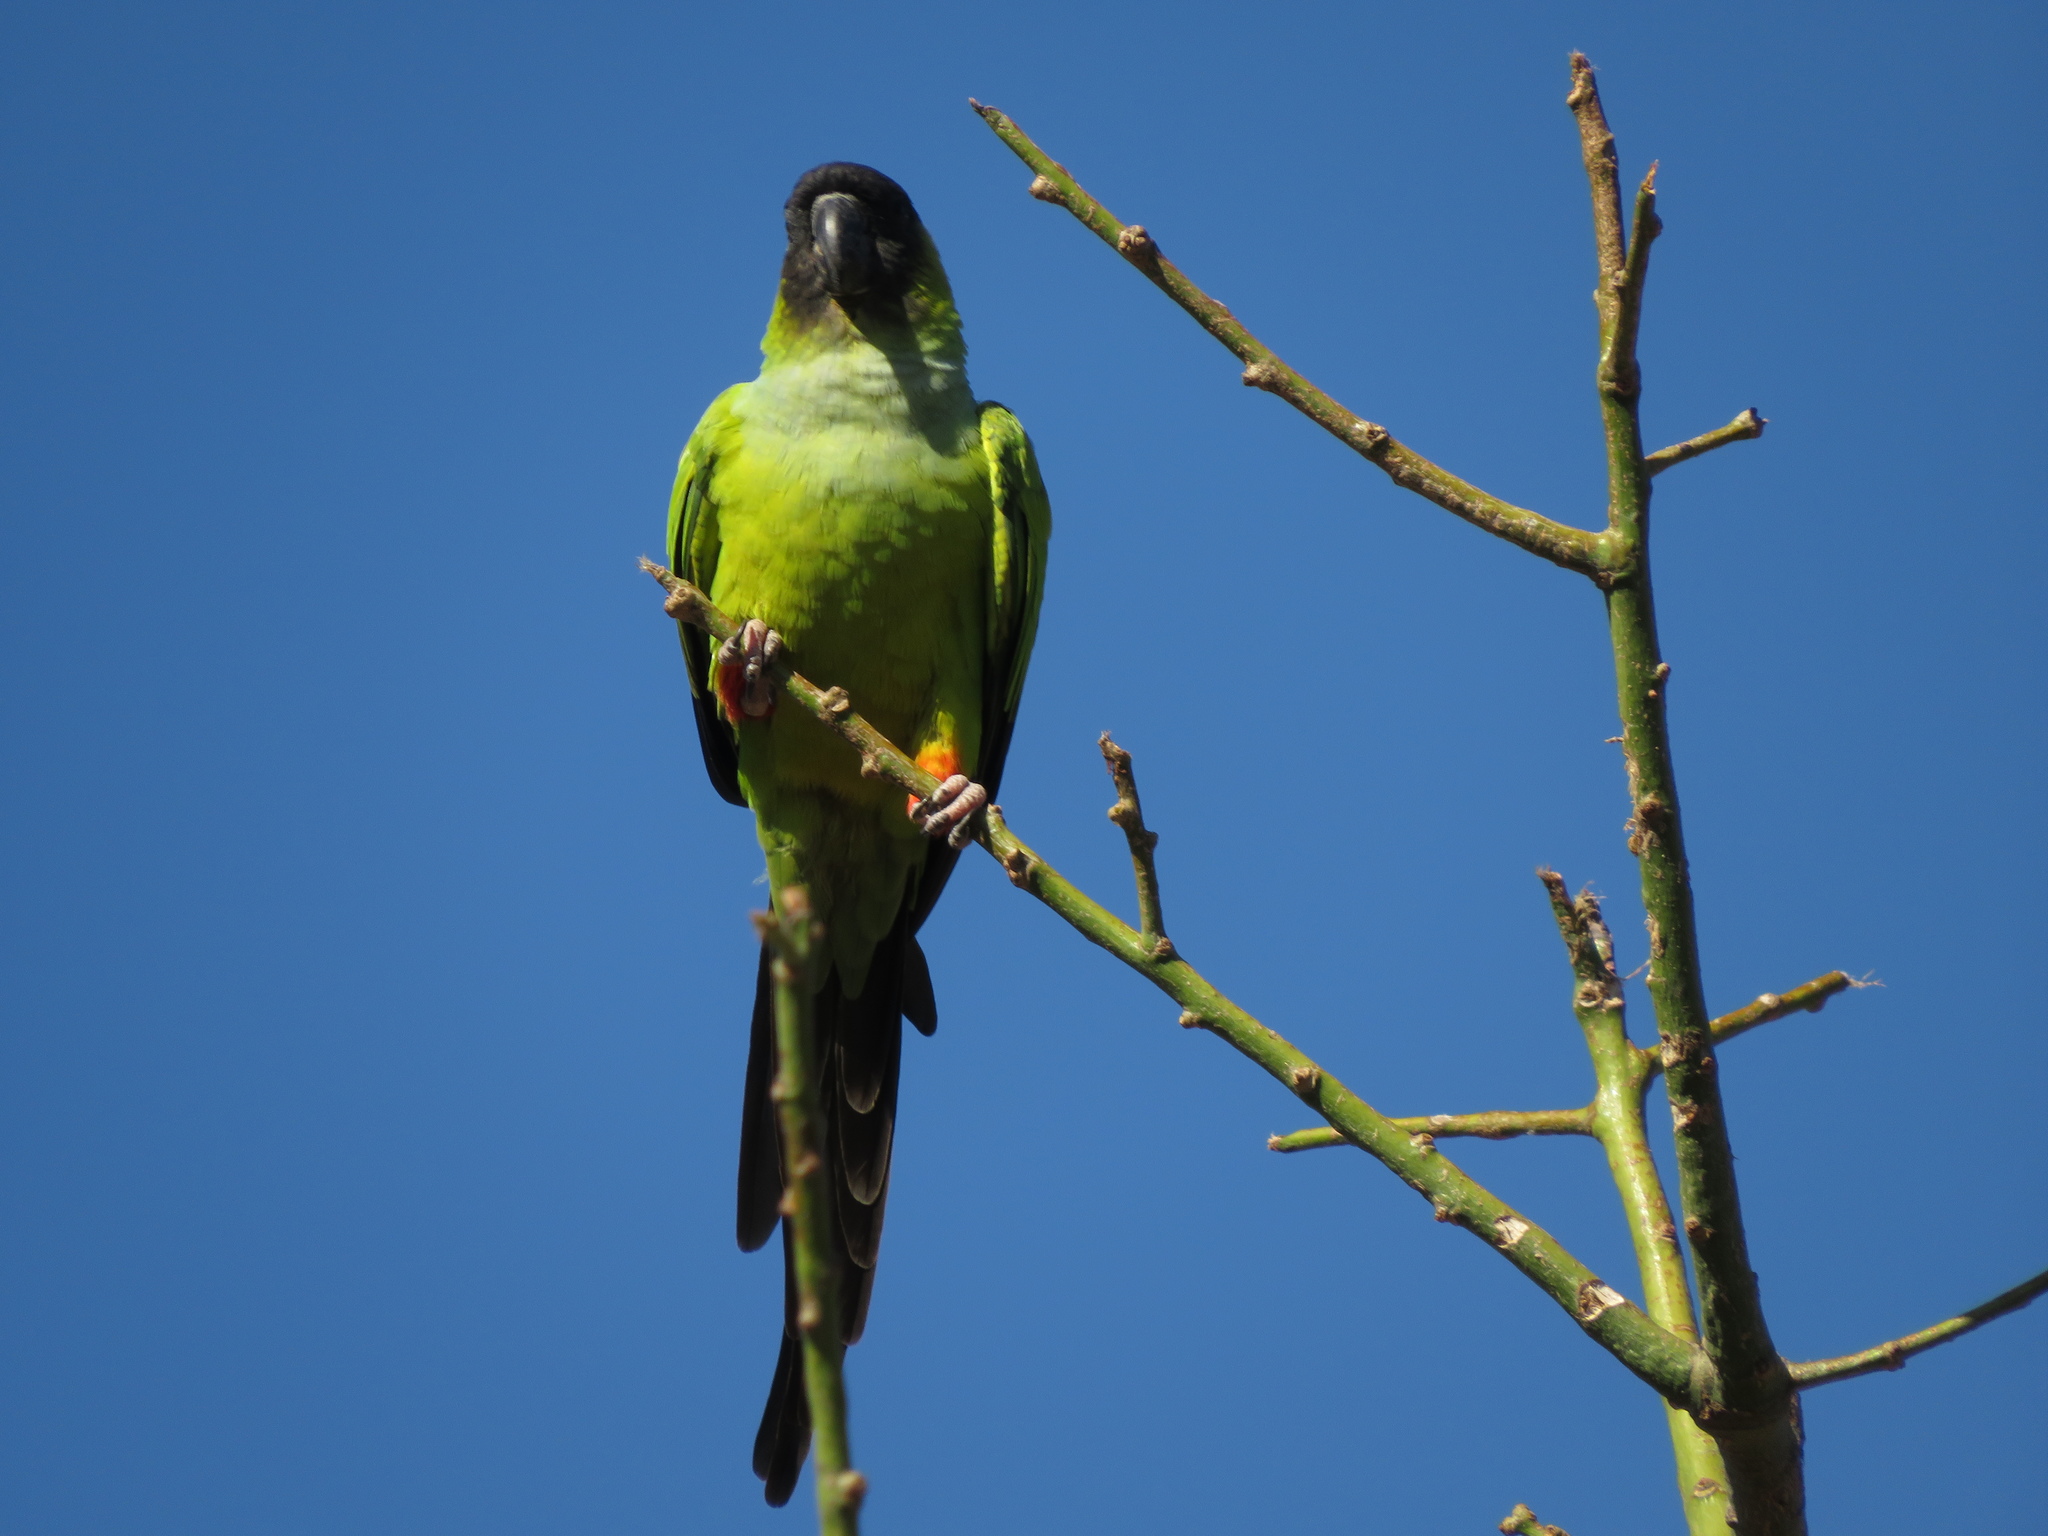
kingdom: Animalia
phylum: Chordata
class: Aves
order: Psittaciformes
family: Psittacidae
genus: Nandayus
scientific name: Nandayus nenday
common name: Nanday parakeet
